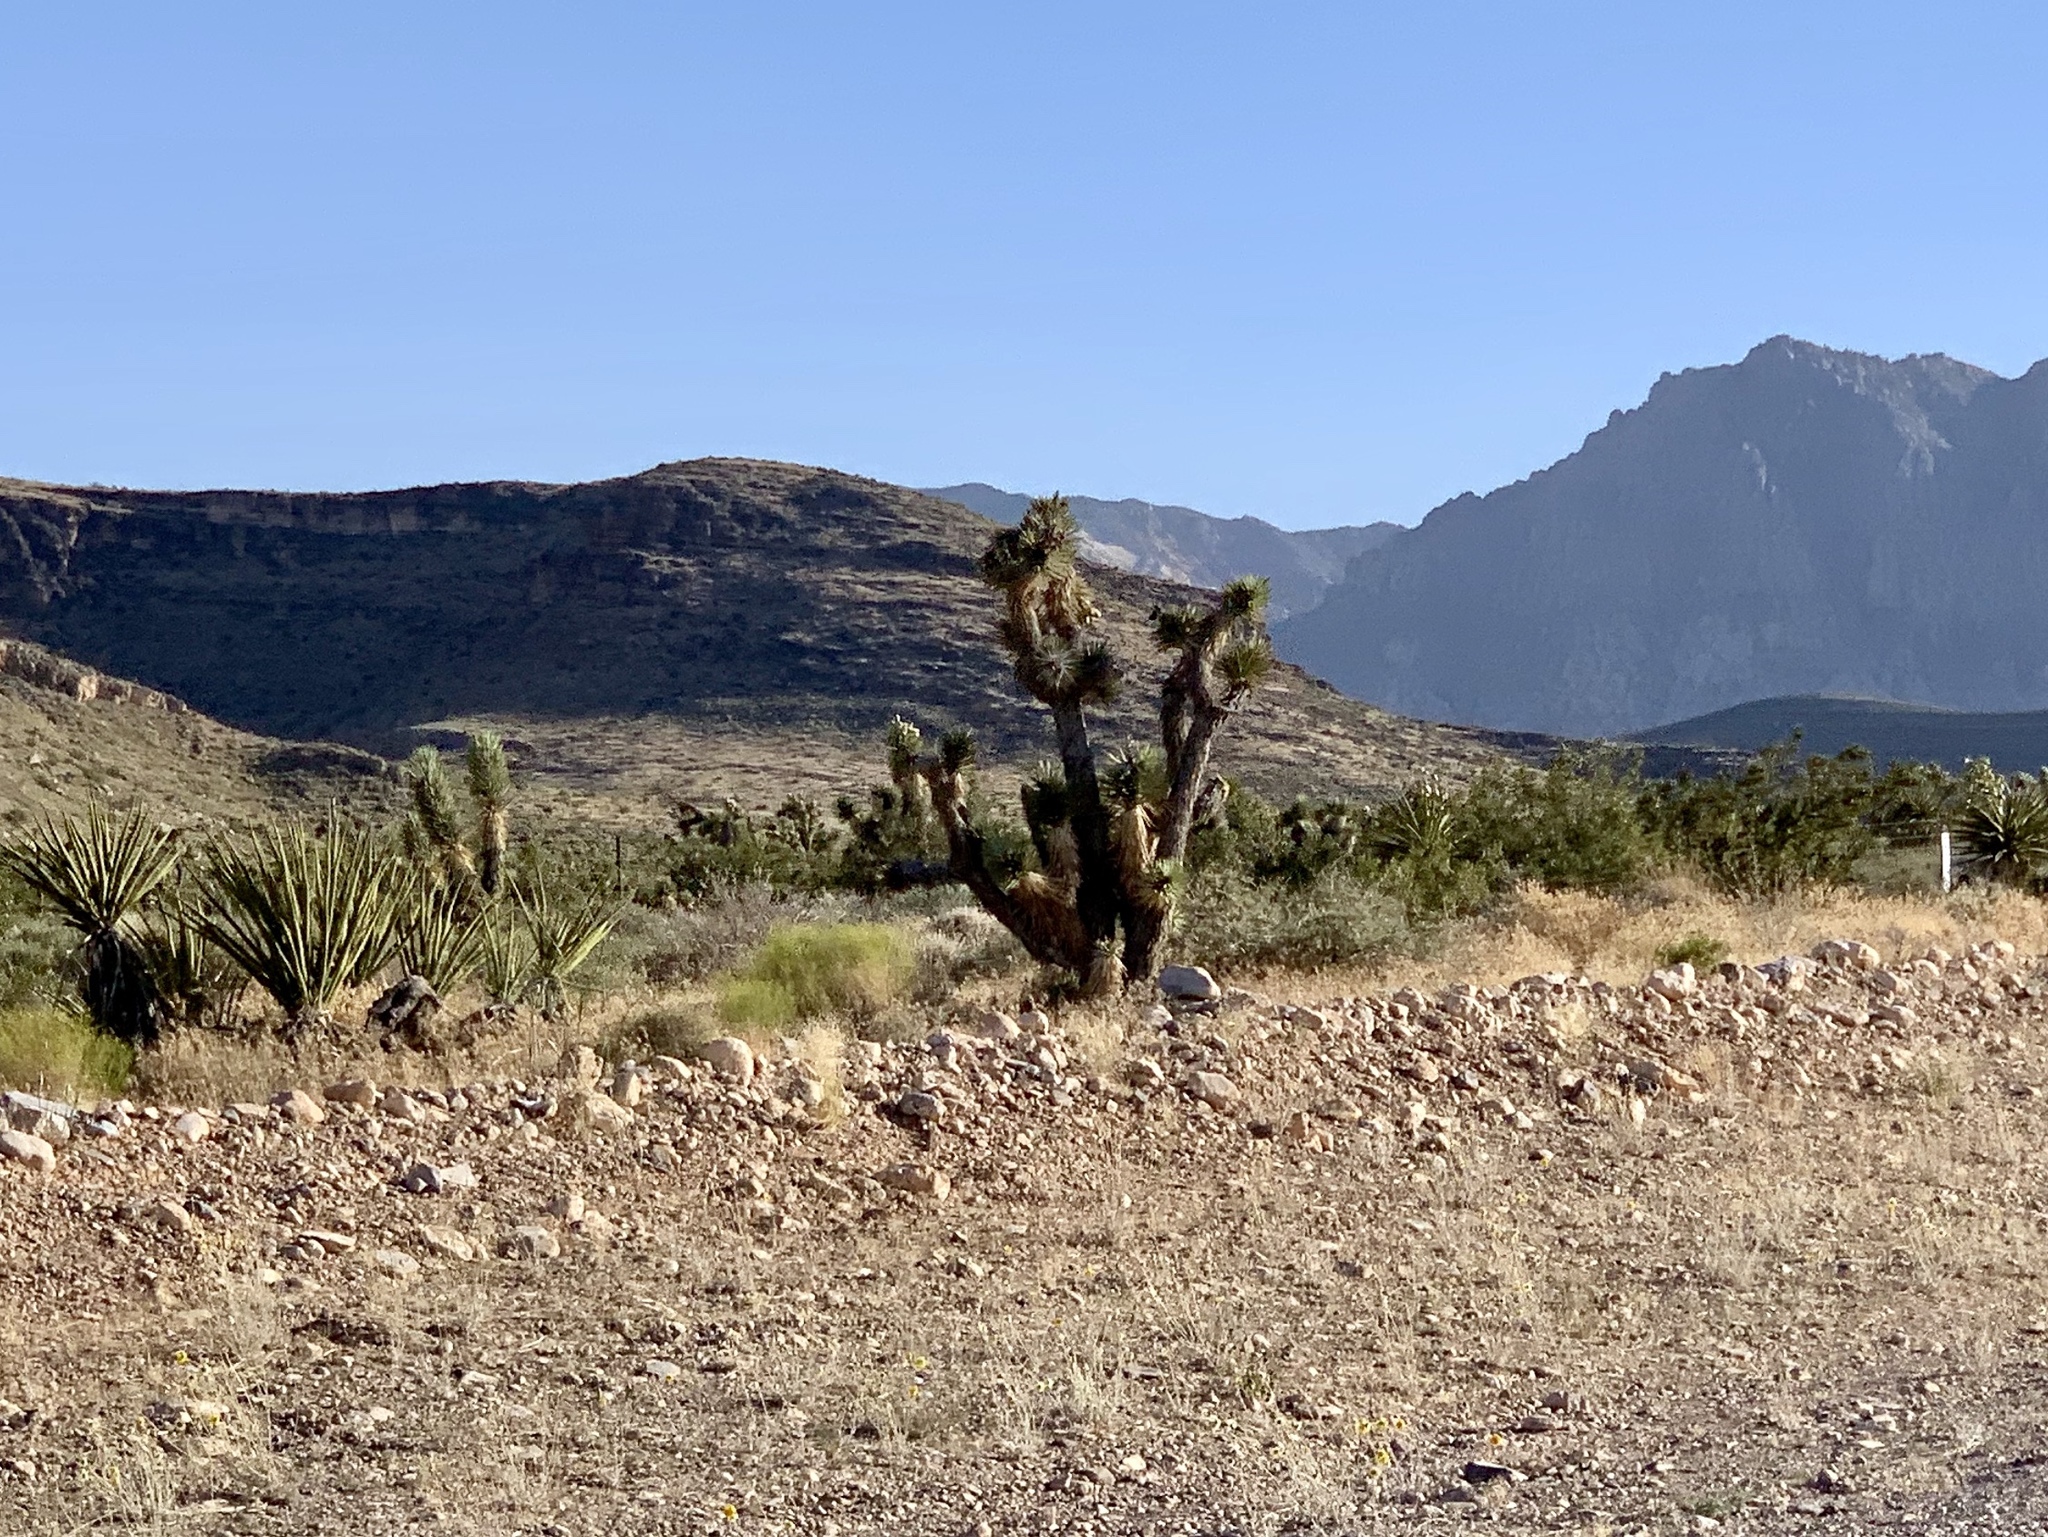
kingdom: Plantae
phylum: Tracheophyta
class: Liliopsida
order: Asparagales
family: Asparagaceae
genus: Yucca
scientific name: Yucca brevifolia
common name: Joshua tree
